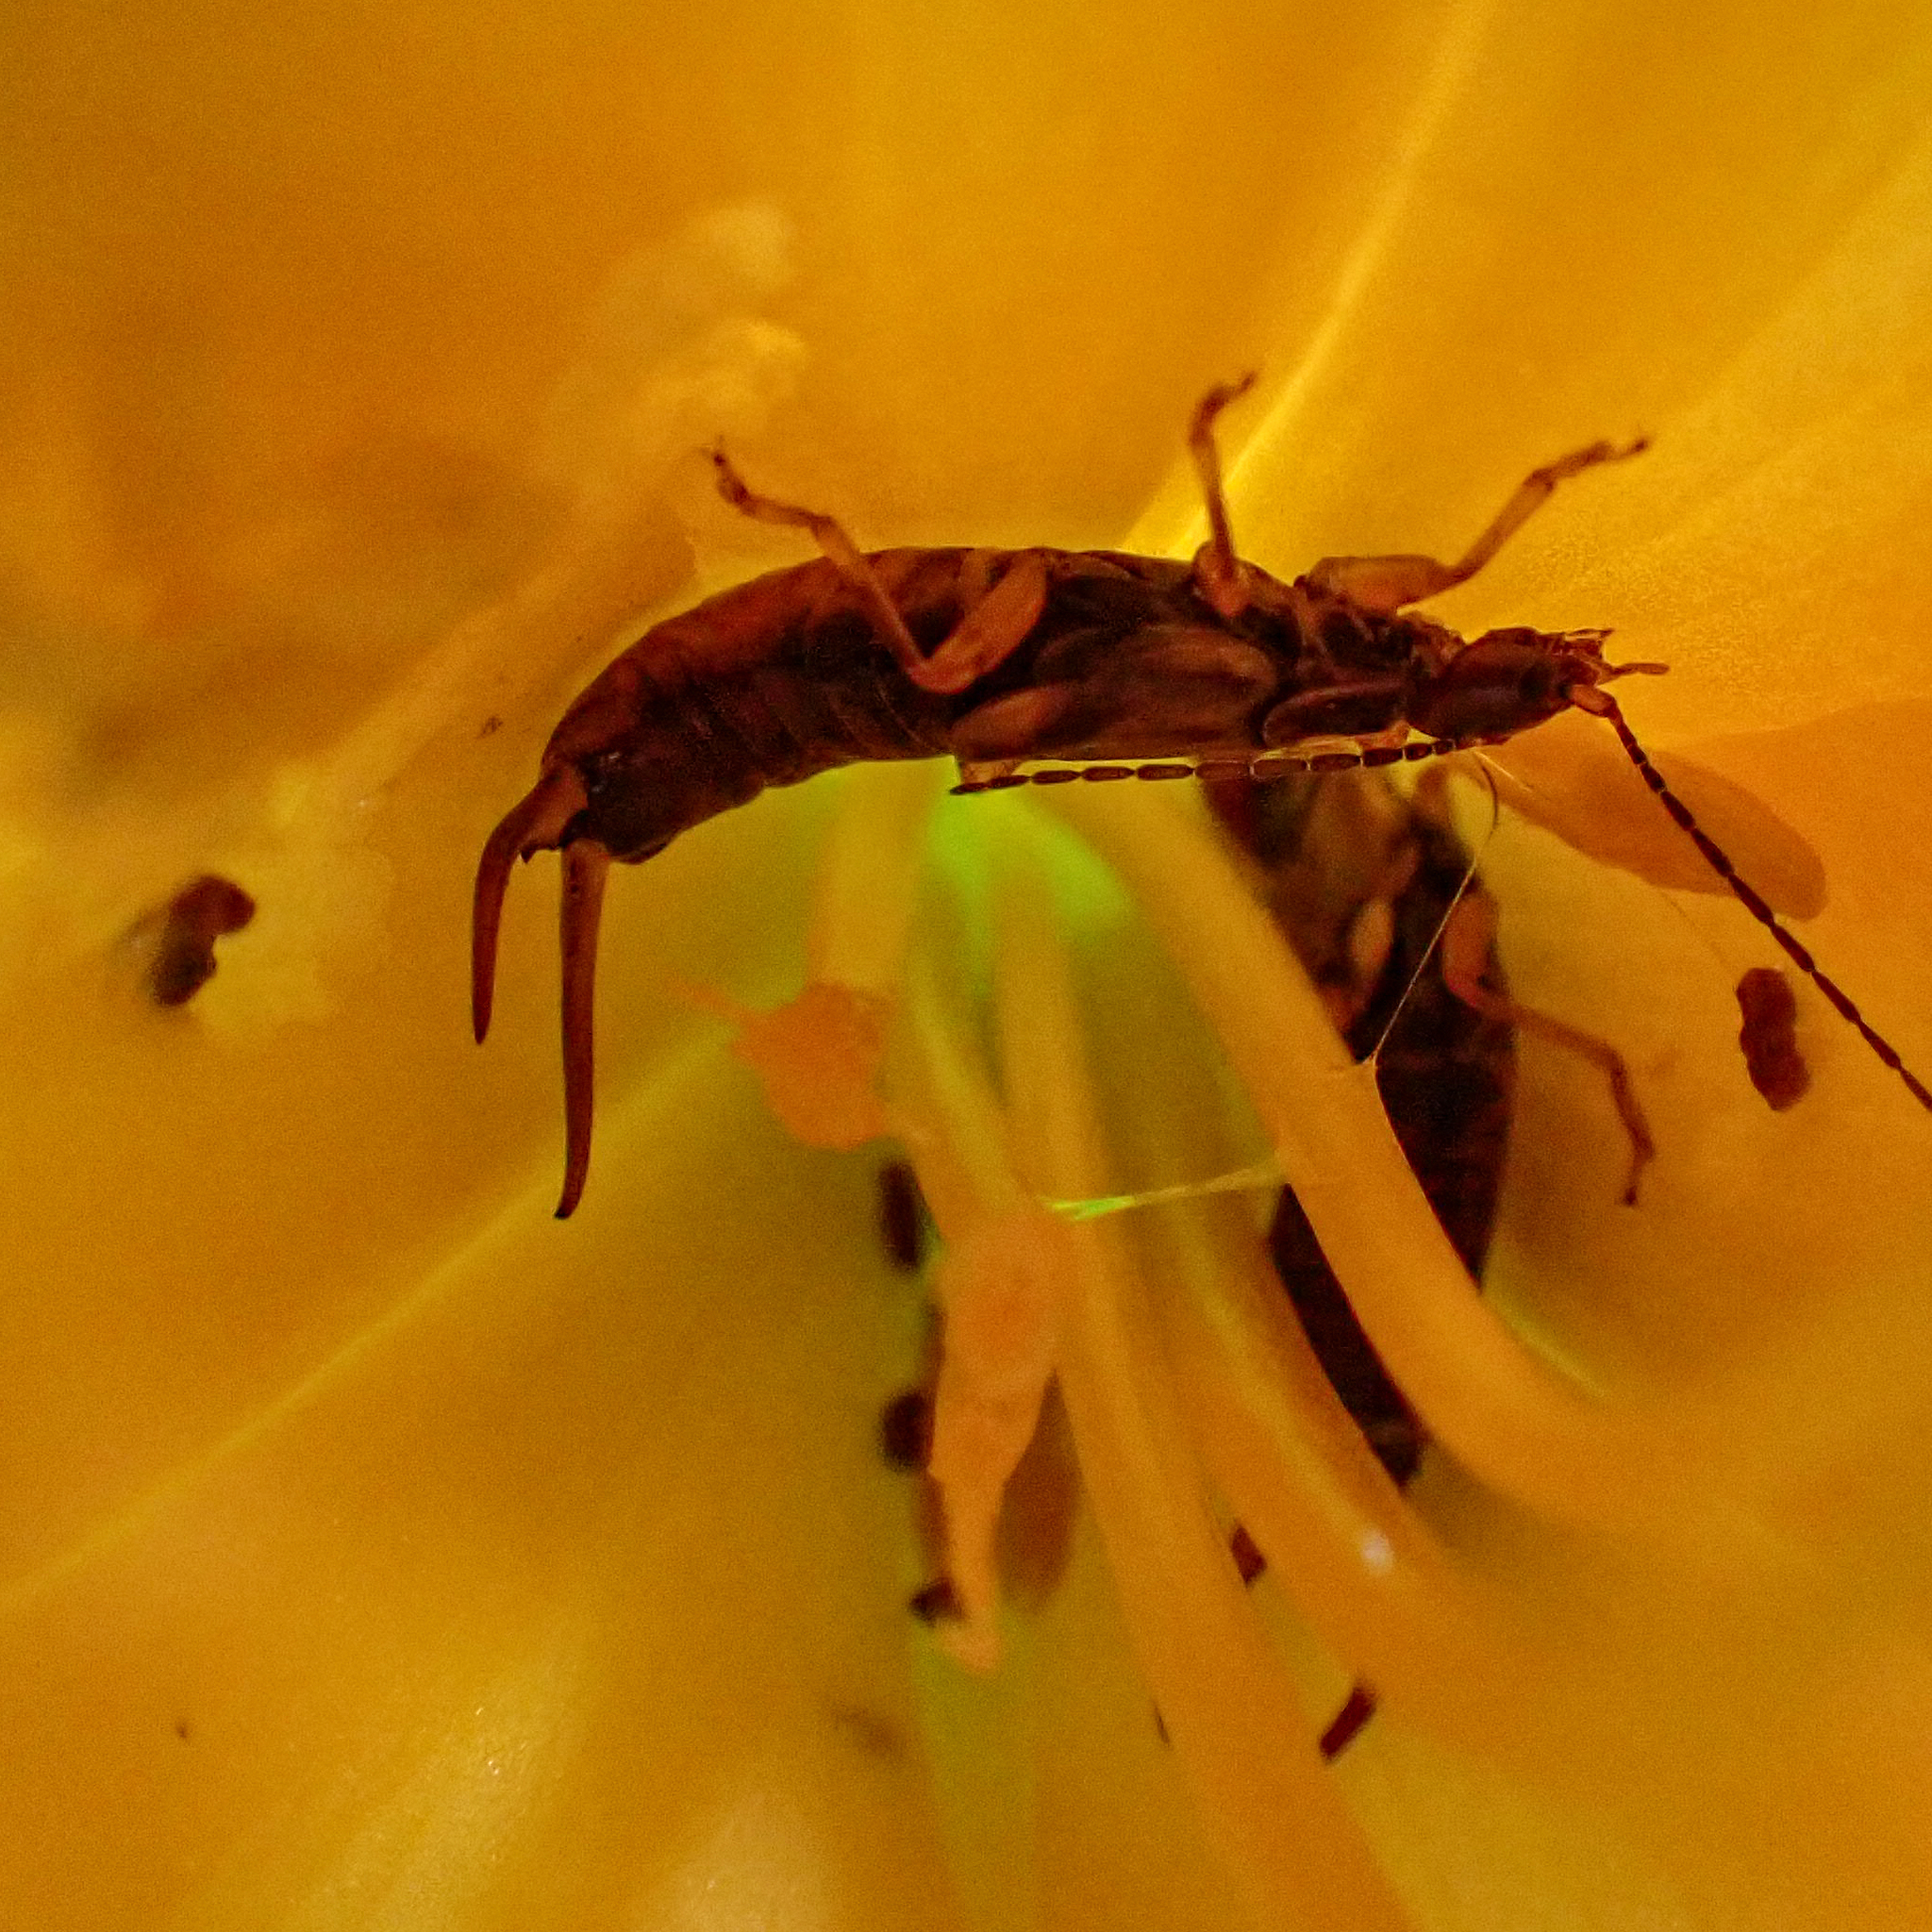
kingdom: Animalia
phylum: Arthropoda
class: Insecta
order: Dermaptera
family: Forficulidae
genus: Forficula
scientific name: Forficula
